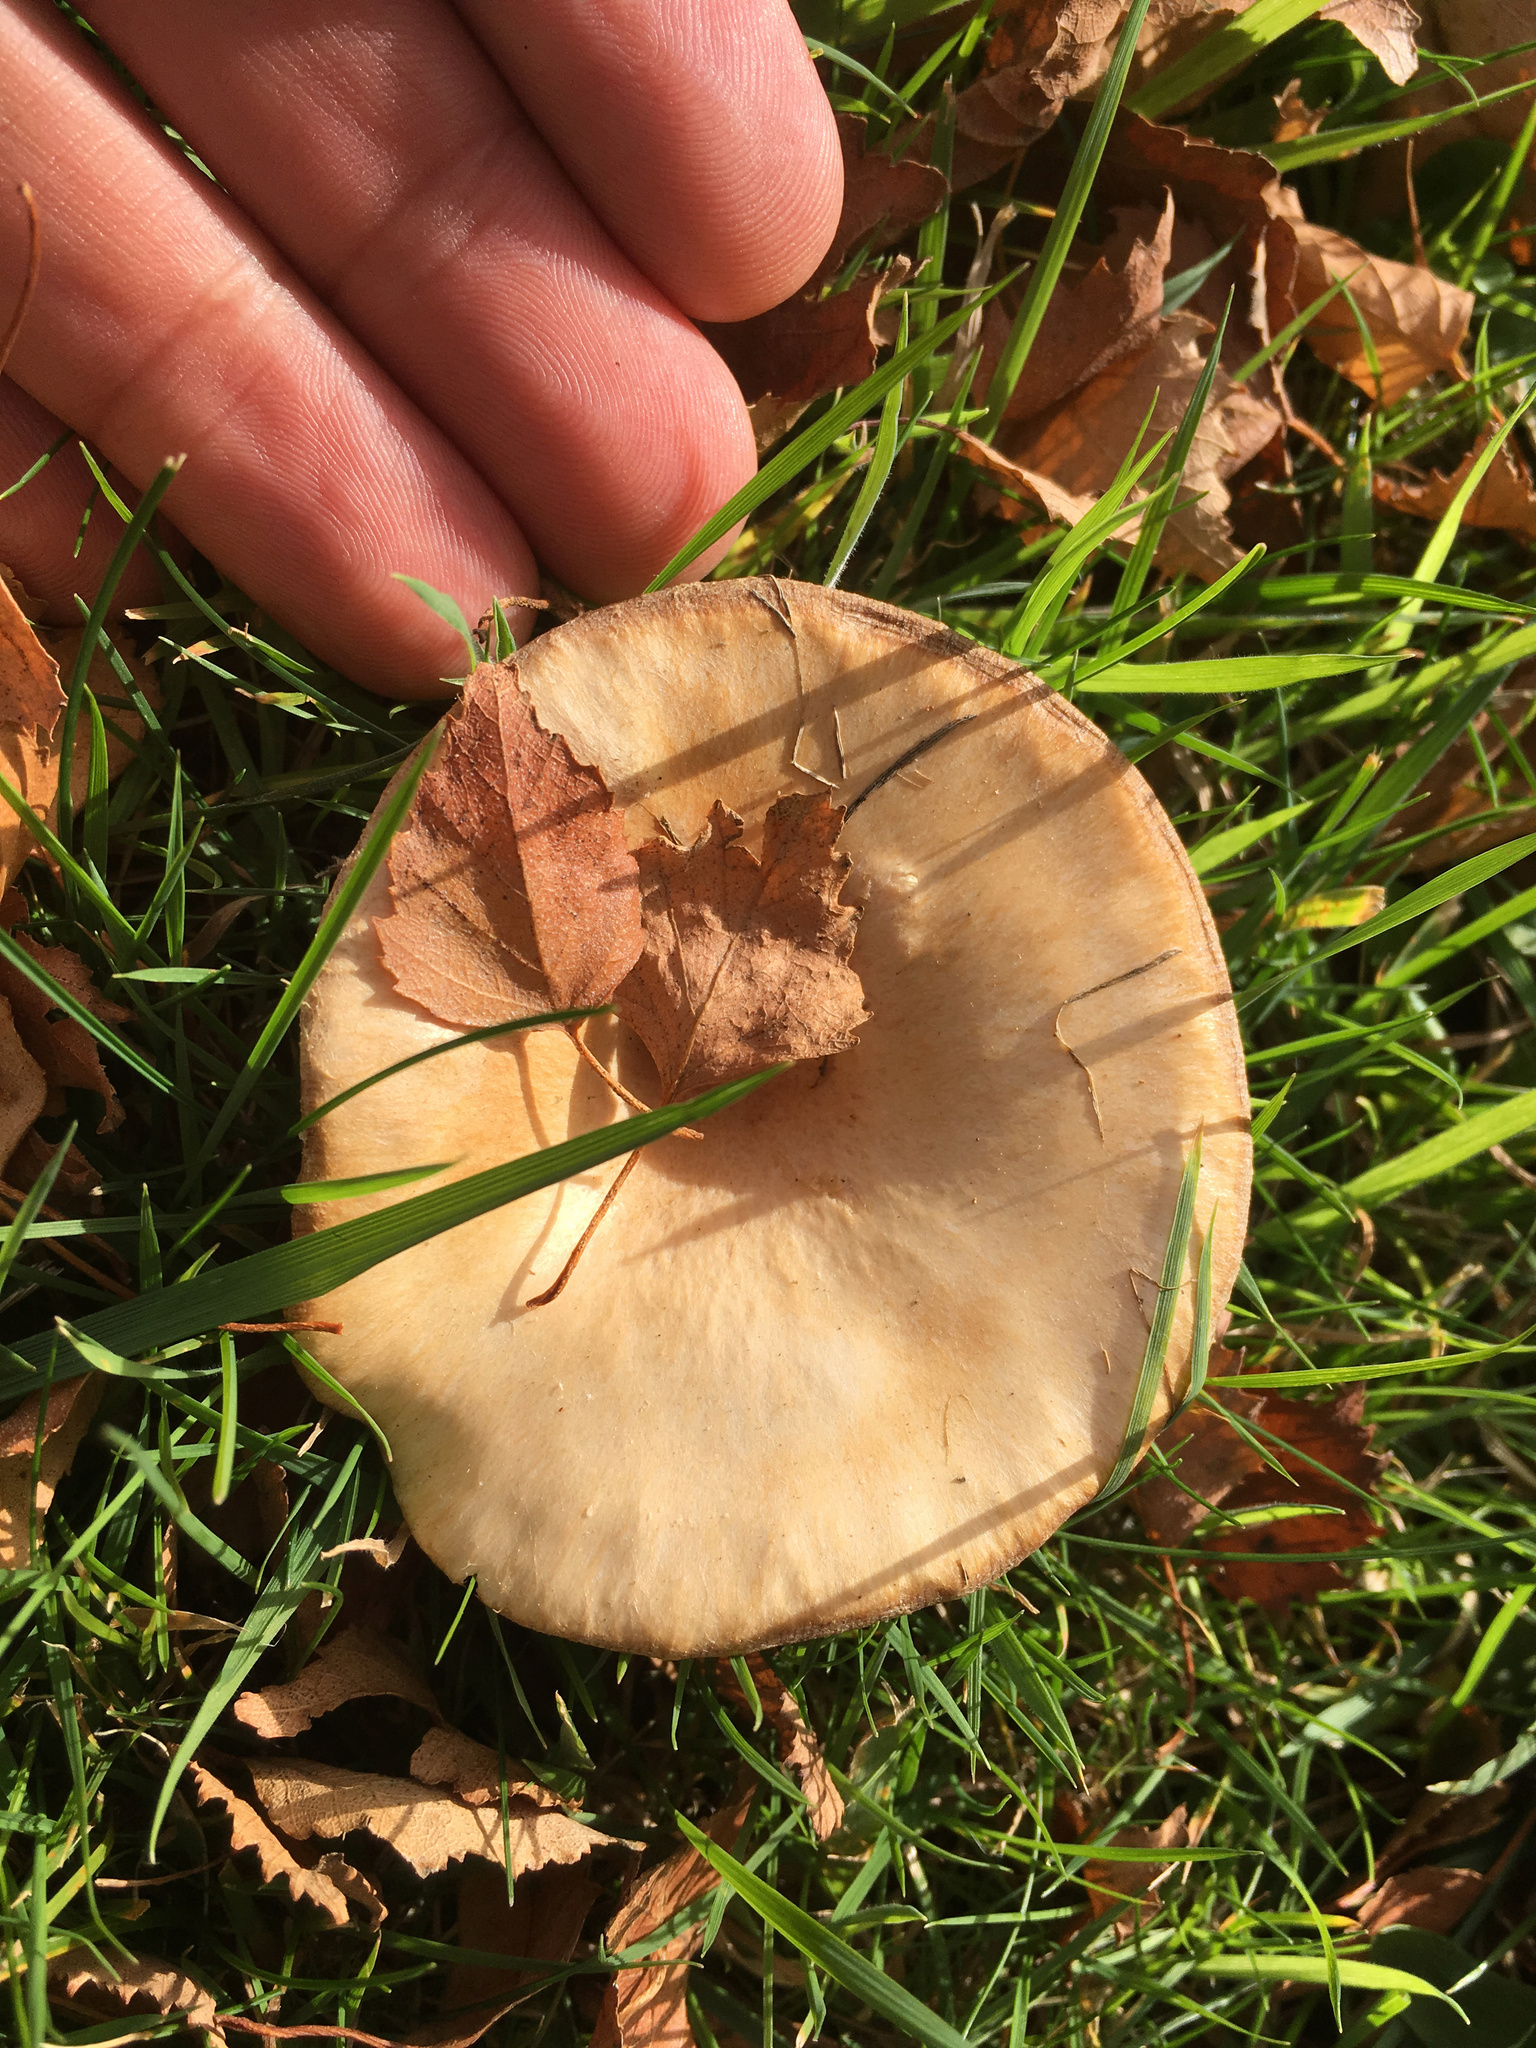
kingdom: Fungi
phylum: Basidiomycota
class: Agaricomycetes
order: Russulales
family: Russulaceae
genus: Lactarius
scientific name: Lactarius pubescens
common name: Bearded milkcap
